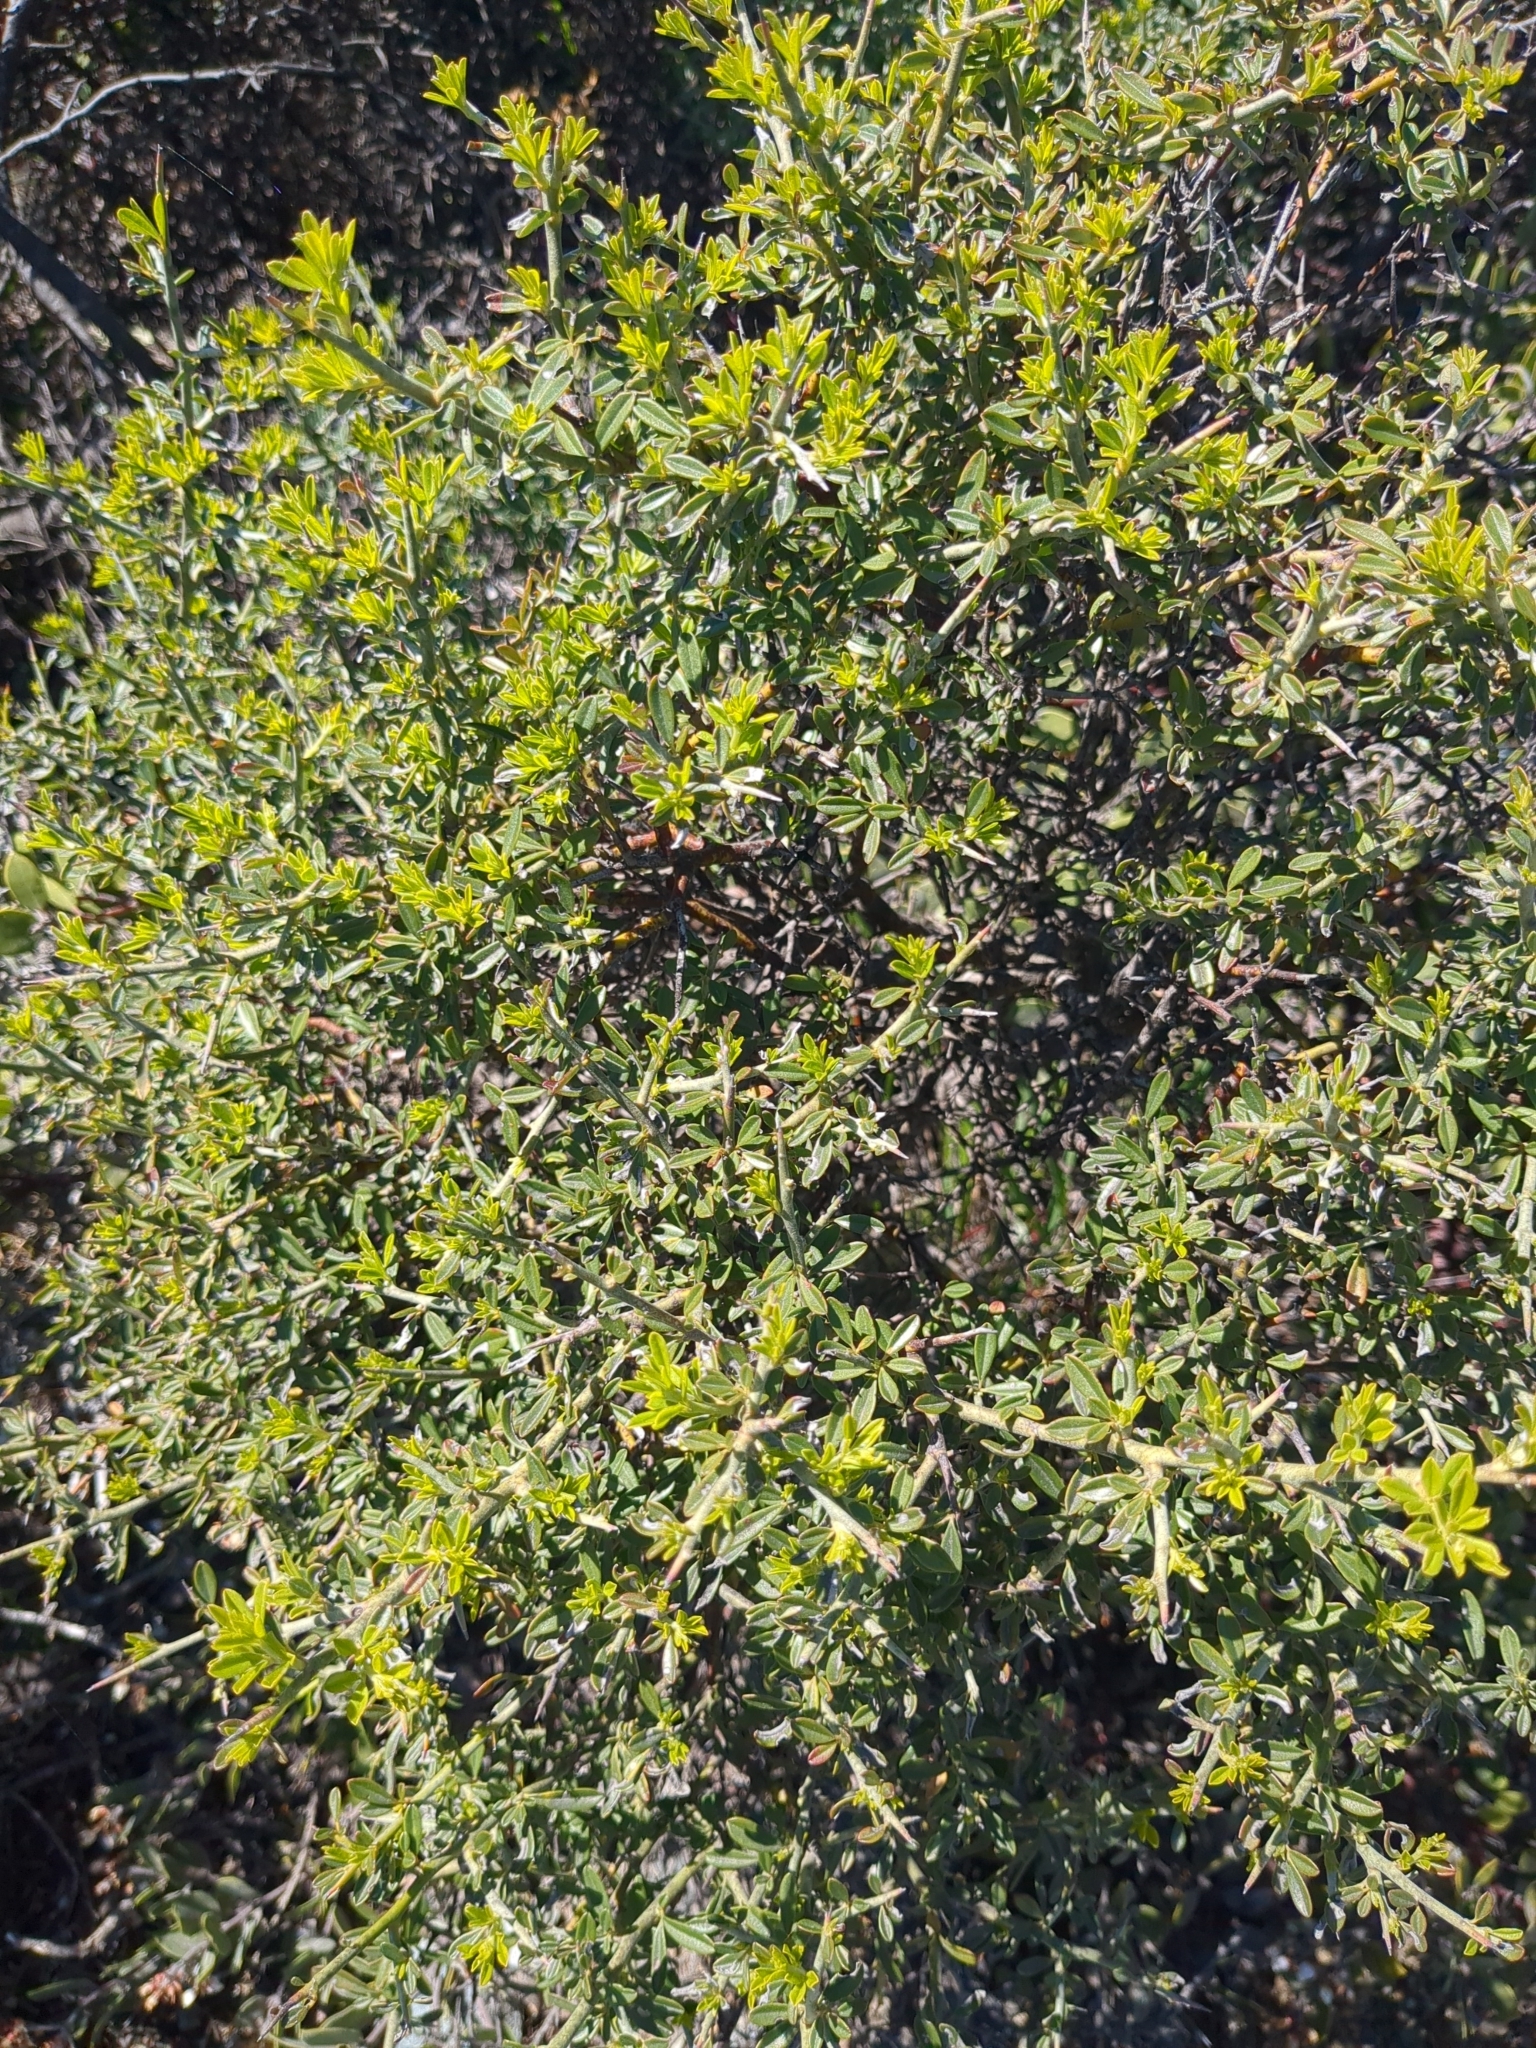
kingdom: Plantae
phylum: Tracheophyta
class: Magnoliopsida
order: Fabales
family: Fabaceae
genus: Pickeringia
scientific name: Pickeringia montana
